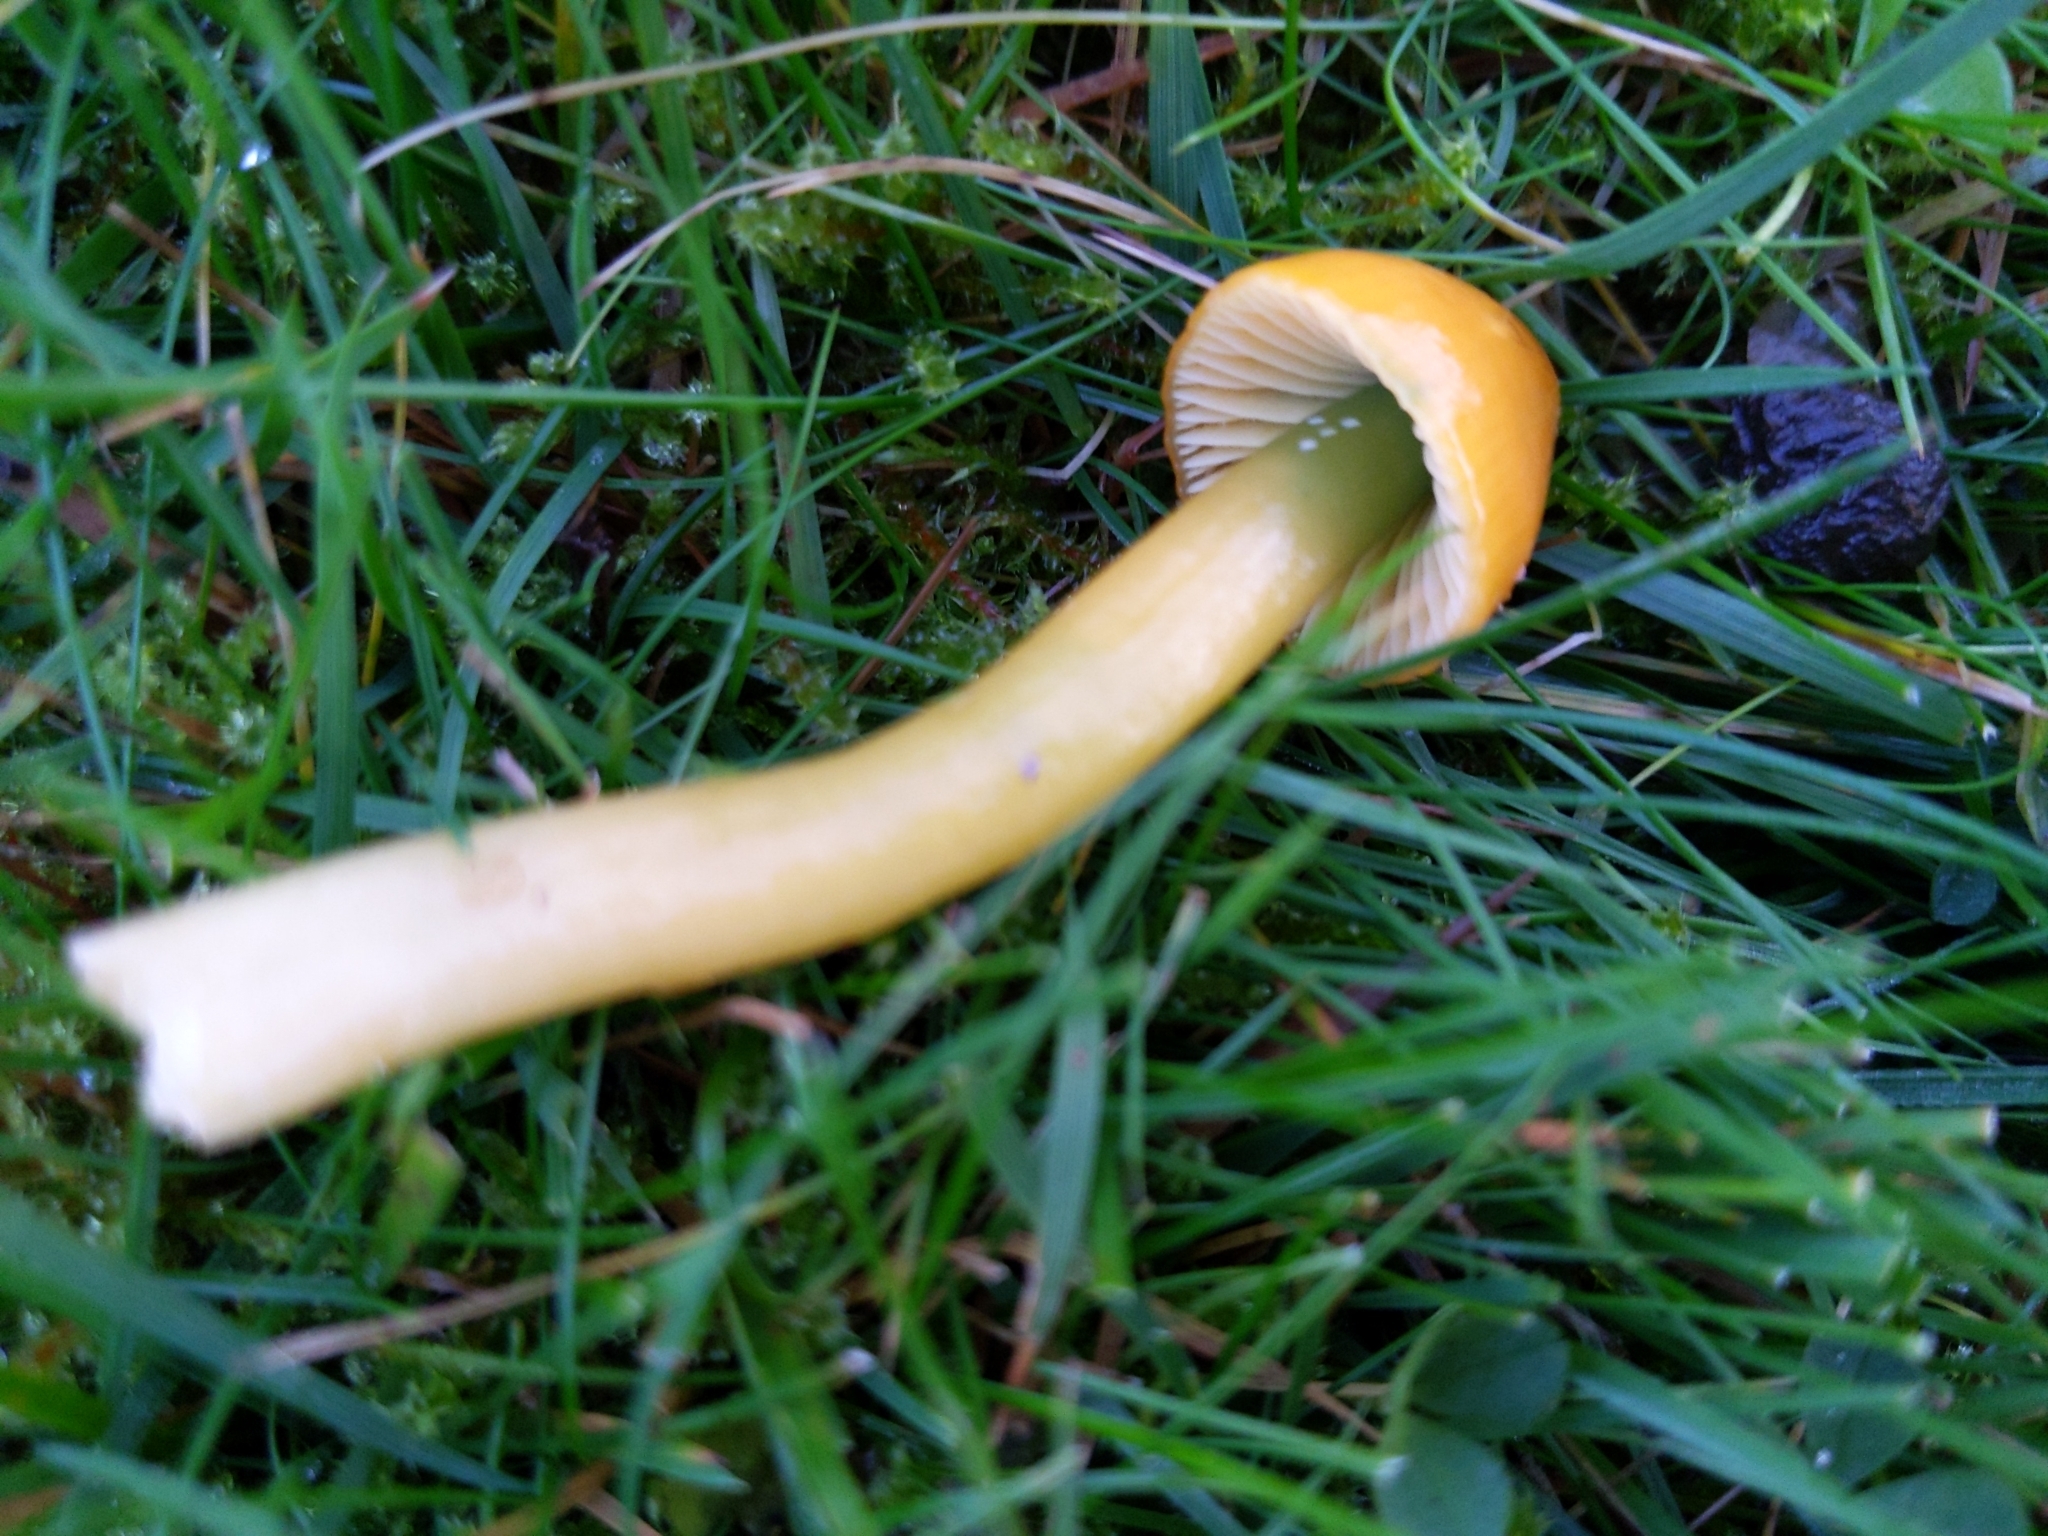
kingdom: Fungi
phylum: Basidiomycota
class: Agaricomycetes
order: Agaricales
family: Hygrophoraceae
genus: Gliophorus
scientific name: Gliophorus psittacinus
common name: Parrot wax-cap
